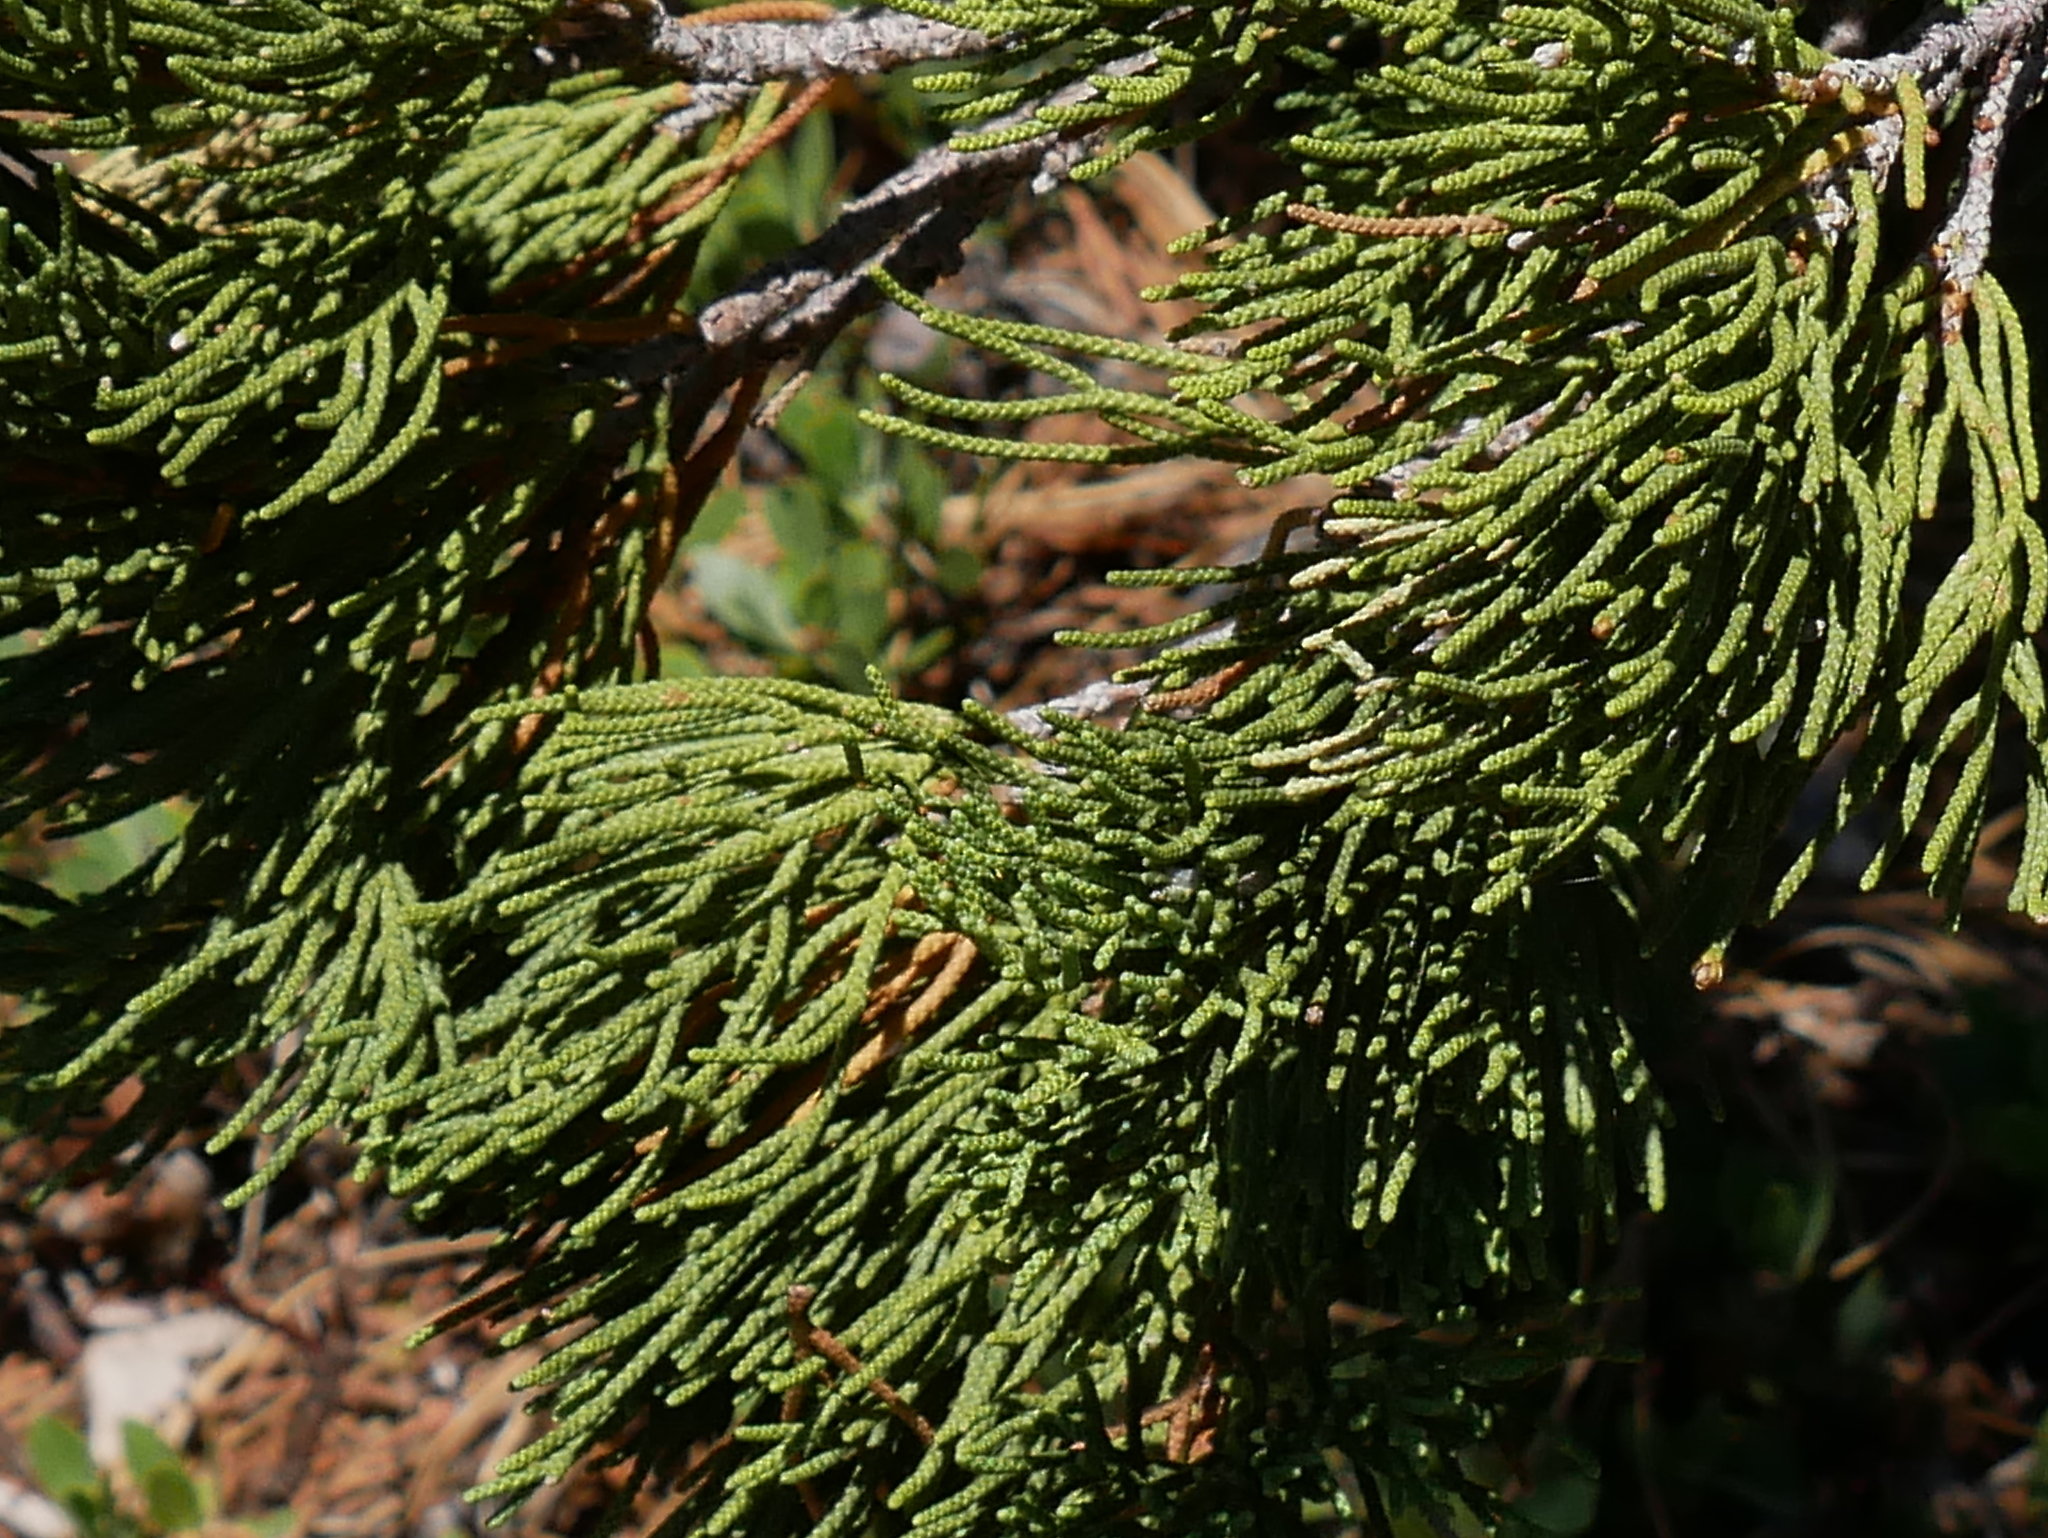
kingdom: Plantae
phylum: Tracheophyta
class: Pinopsida
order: Pinales
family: Cupressaceae
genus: Juniperus
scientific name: Juniperus occidentalis
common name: Western juniper
